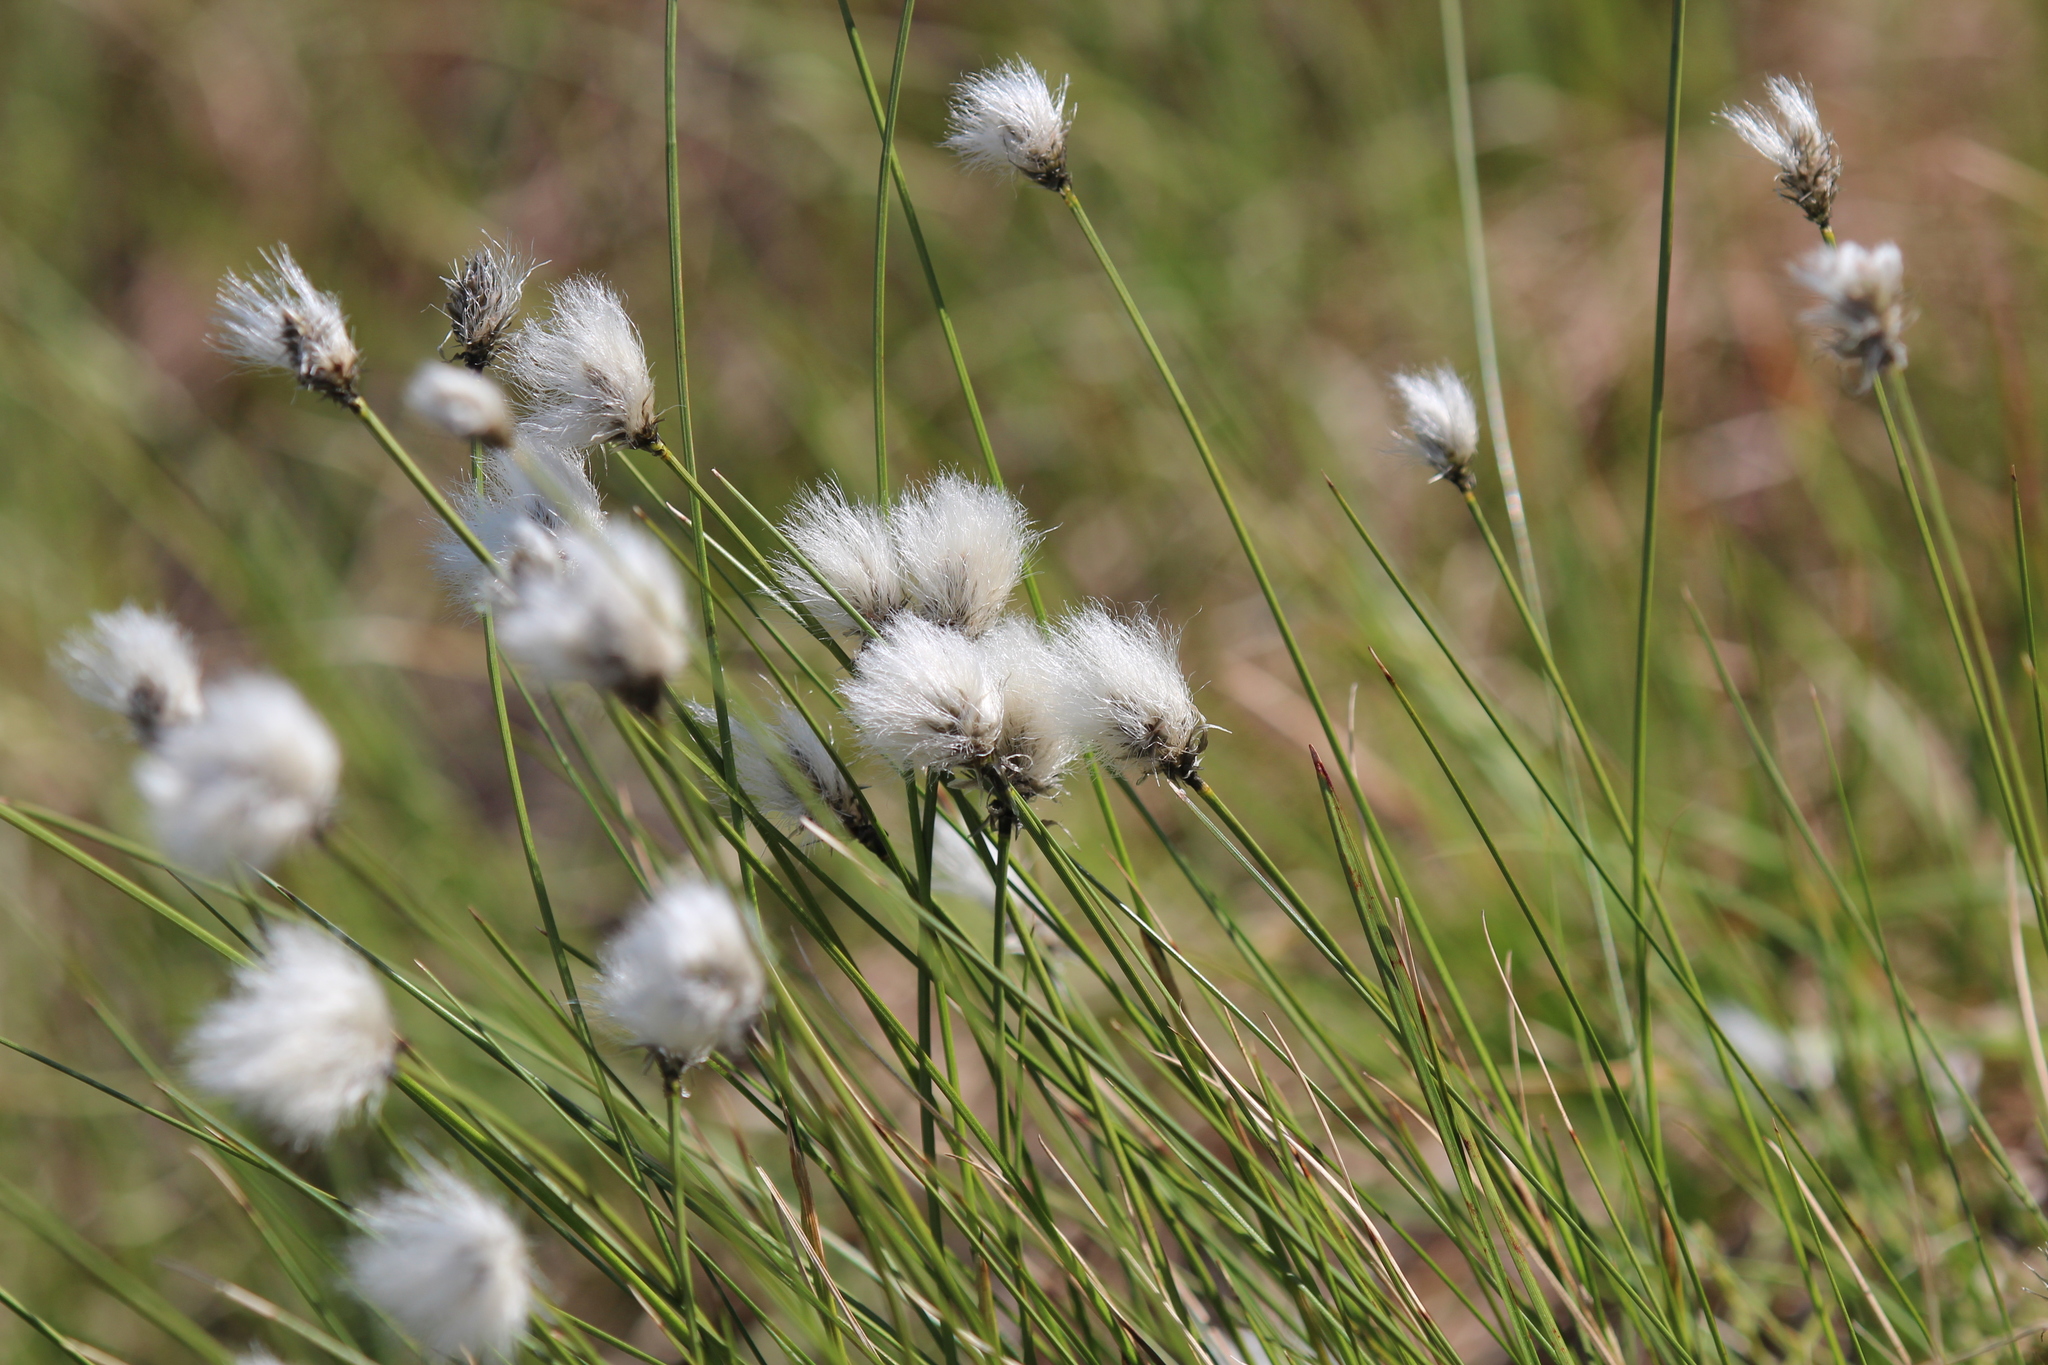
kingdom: Plantae
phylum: Tracheophyta
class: Liliopsida
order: Poales
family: Cyperaceae
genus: Eriophorum
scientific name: Eriophorum vaginatum
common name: Hare's-tail cottongrass
